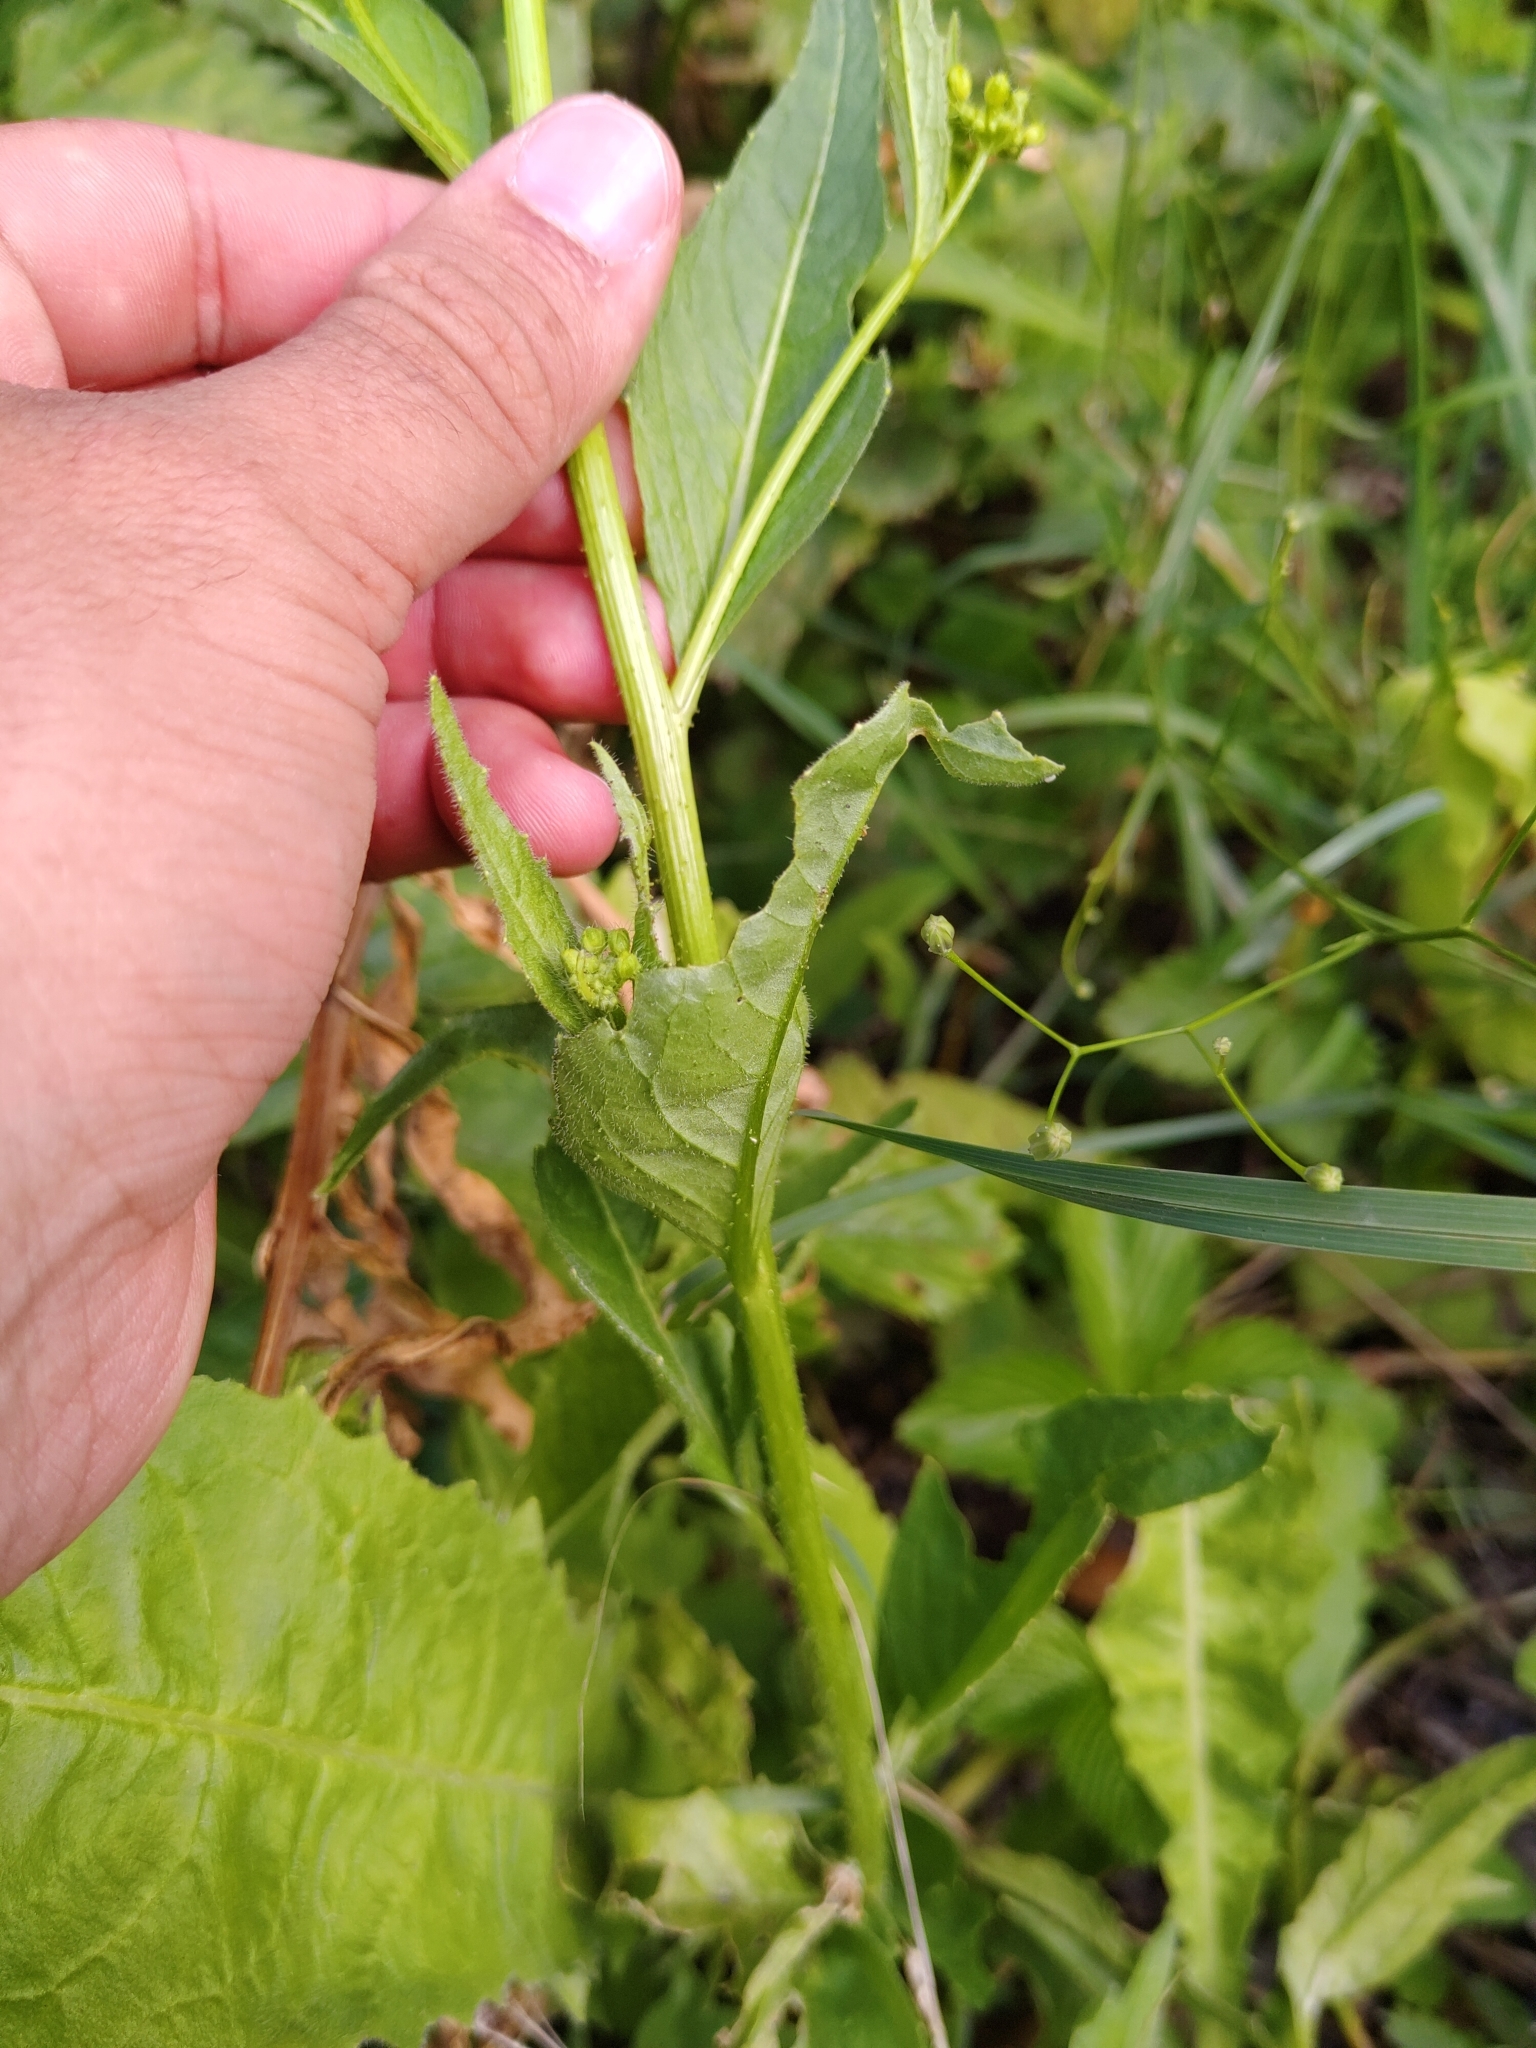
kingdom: Plantae
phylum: Tracheophyta
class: Magnoliopsida
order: Brassicales
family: Brassicaceae
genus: Bunias
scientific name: Bunias orientalis
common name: Warty-cabbage
